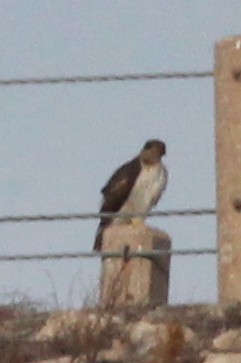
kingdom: Animalia
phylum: Chordata
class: Aves
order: Accipitriformes
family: Accipitridae
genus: Buteo
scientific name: Buteo jamaicensis
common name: Red-tailed hawk
